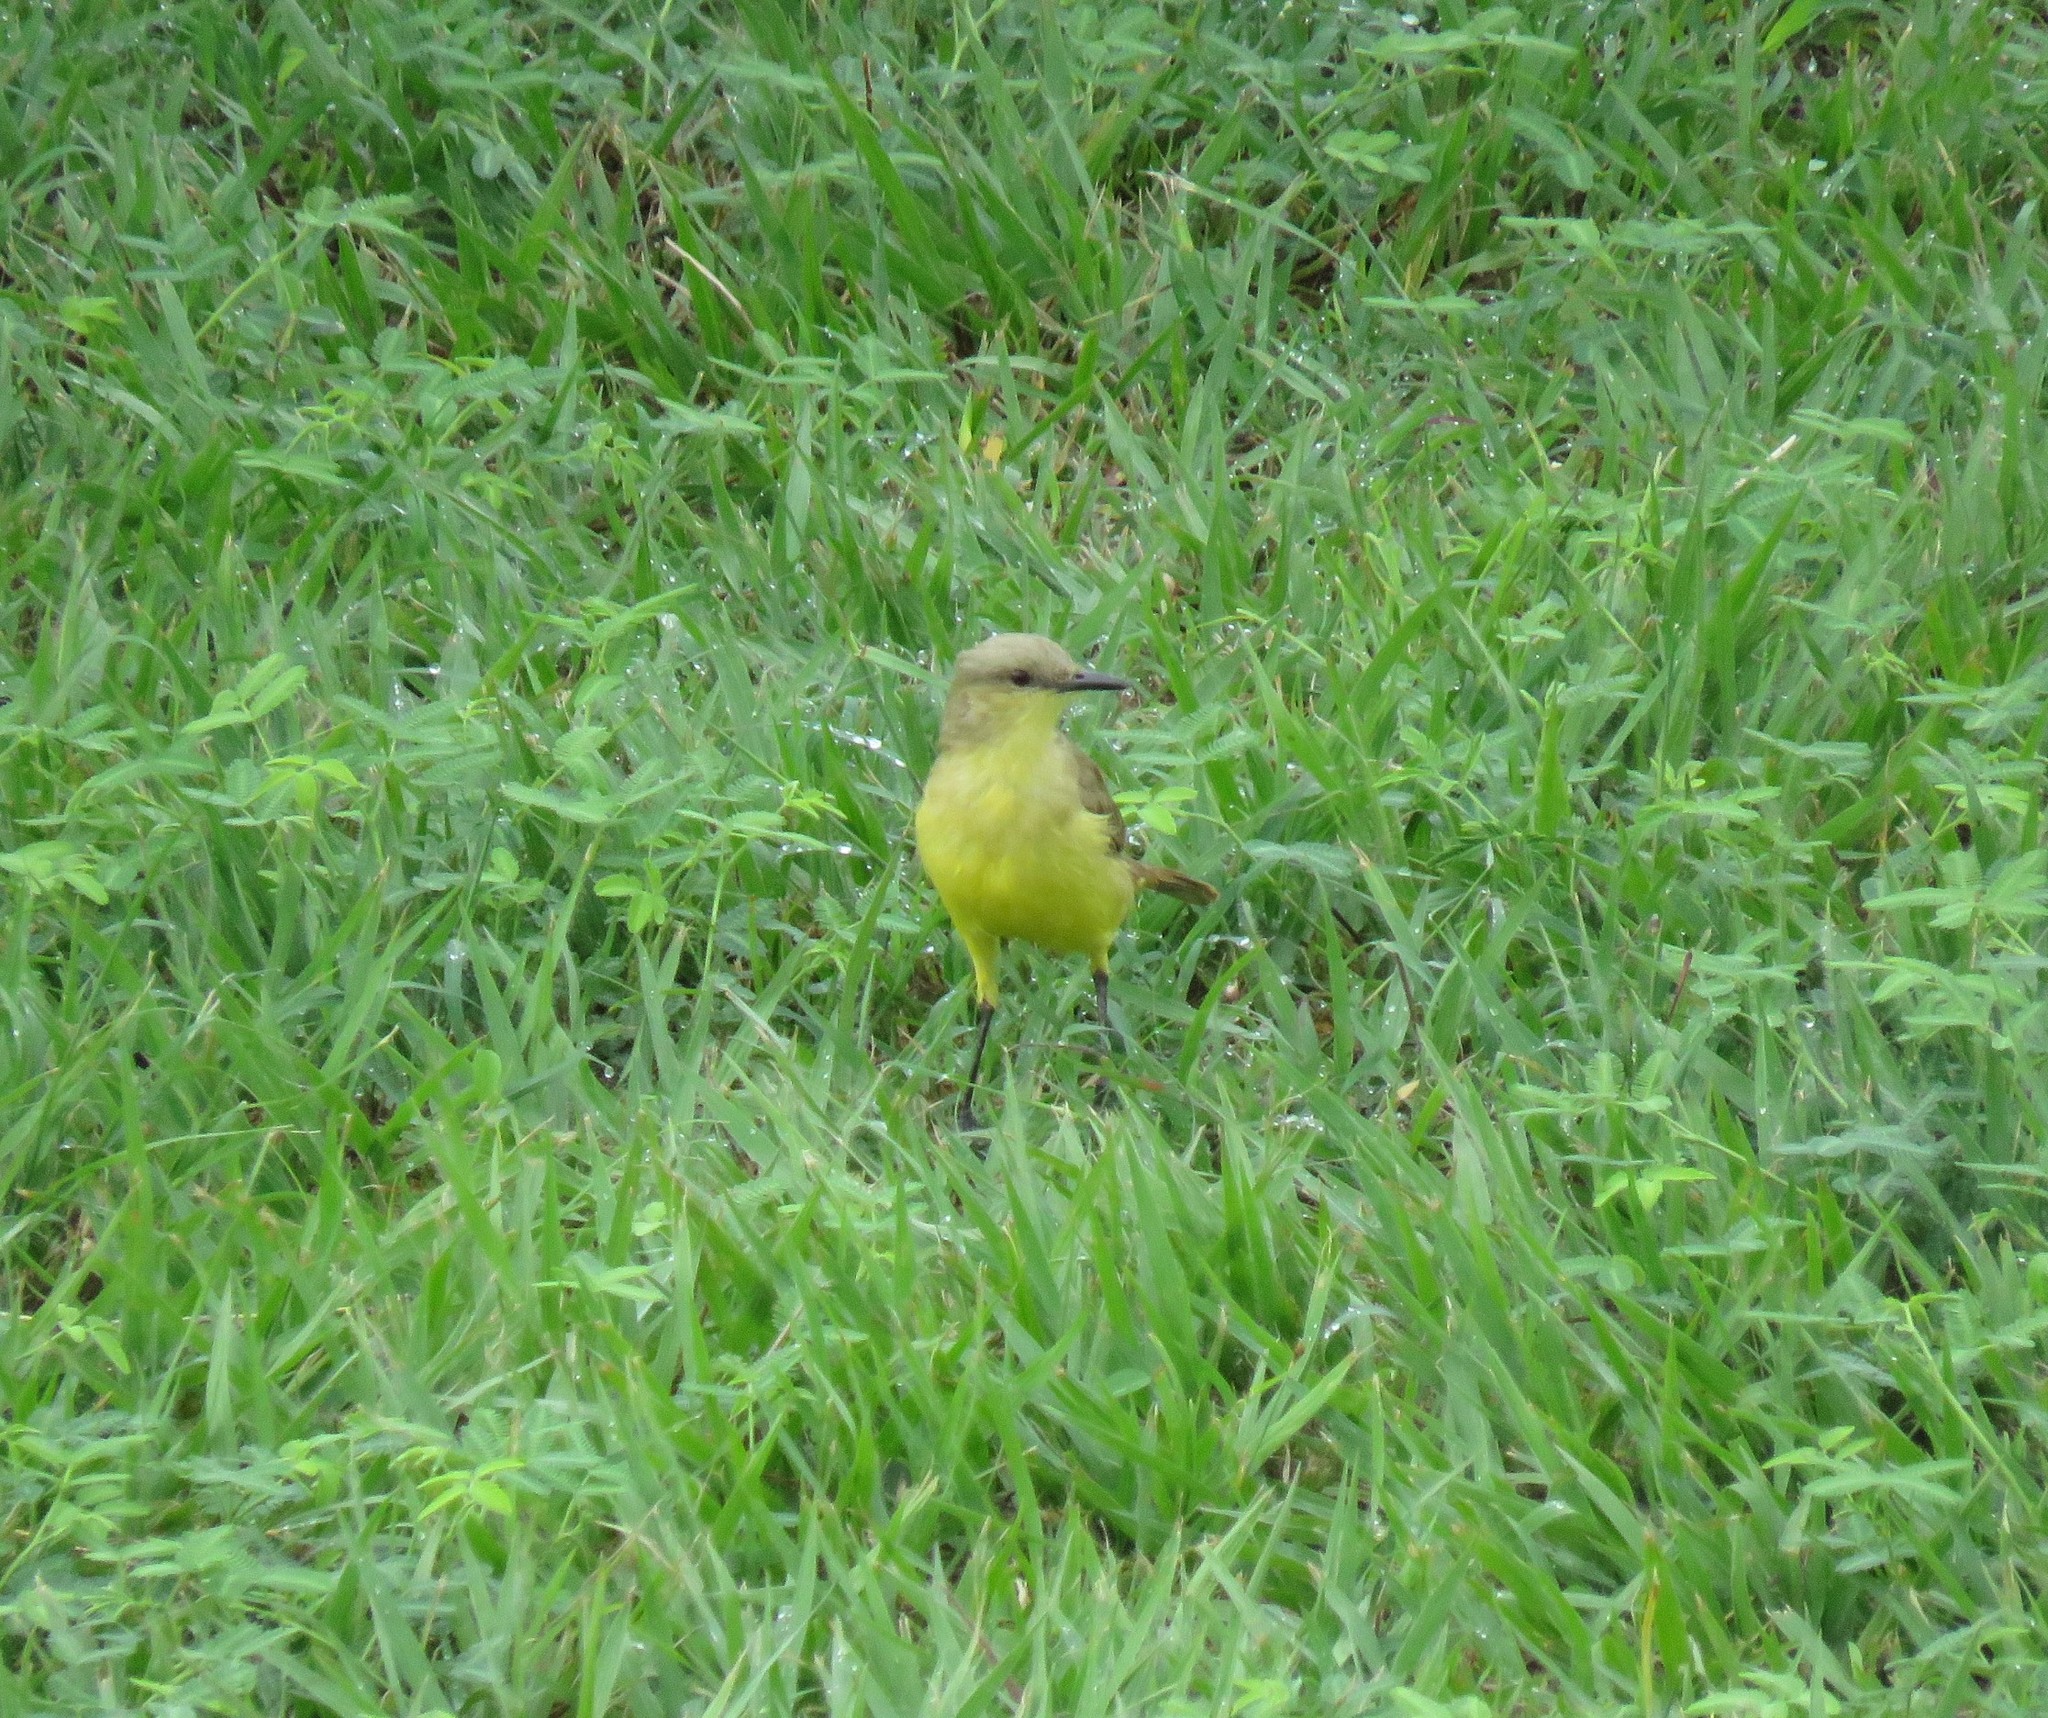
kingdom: Animalia
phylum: Chordata
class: Aves
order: Passeriformes
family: Tyrannidae
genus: Machetornis
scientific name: Machetornis rixosa
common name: Cattle tyrant
